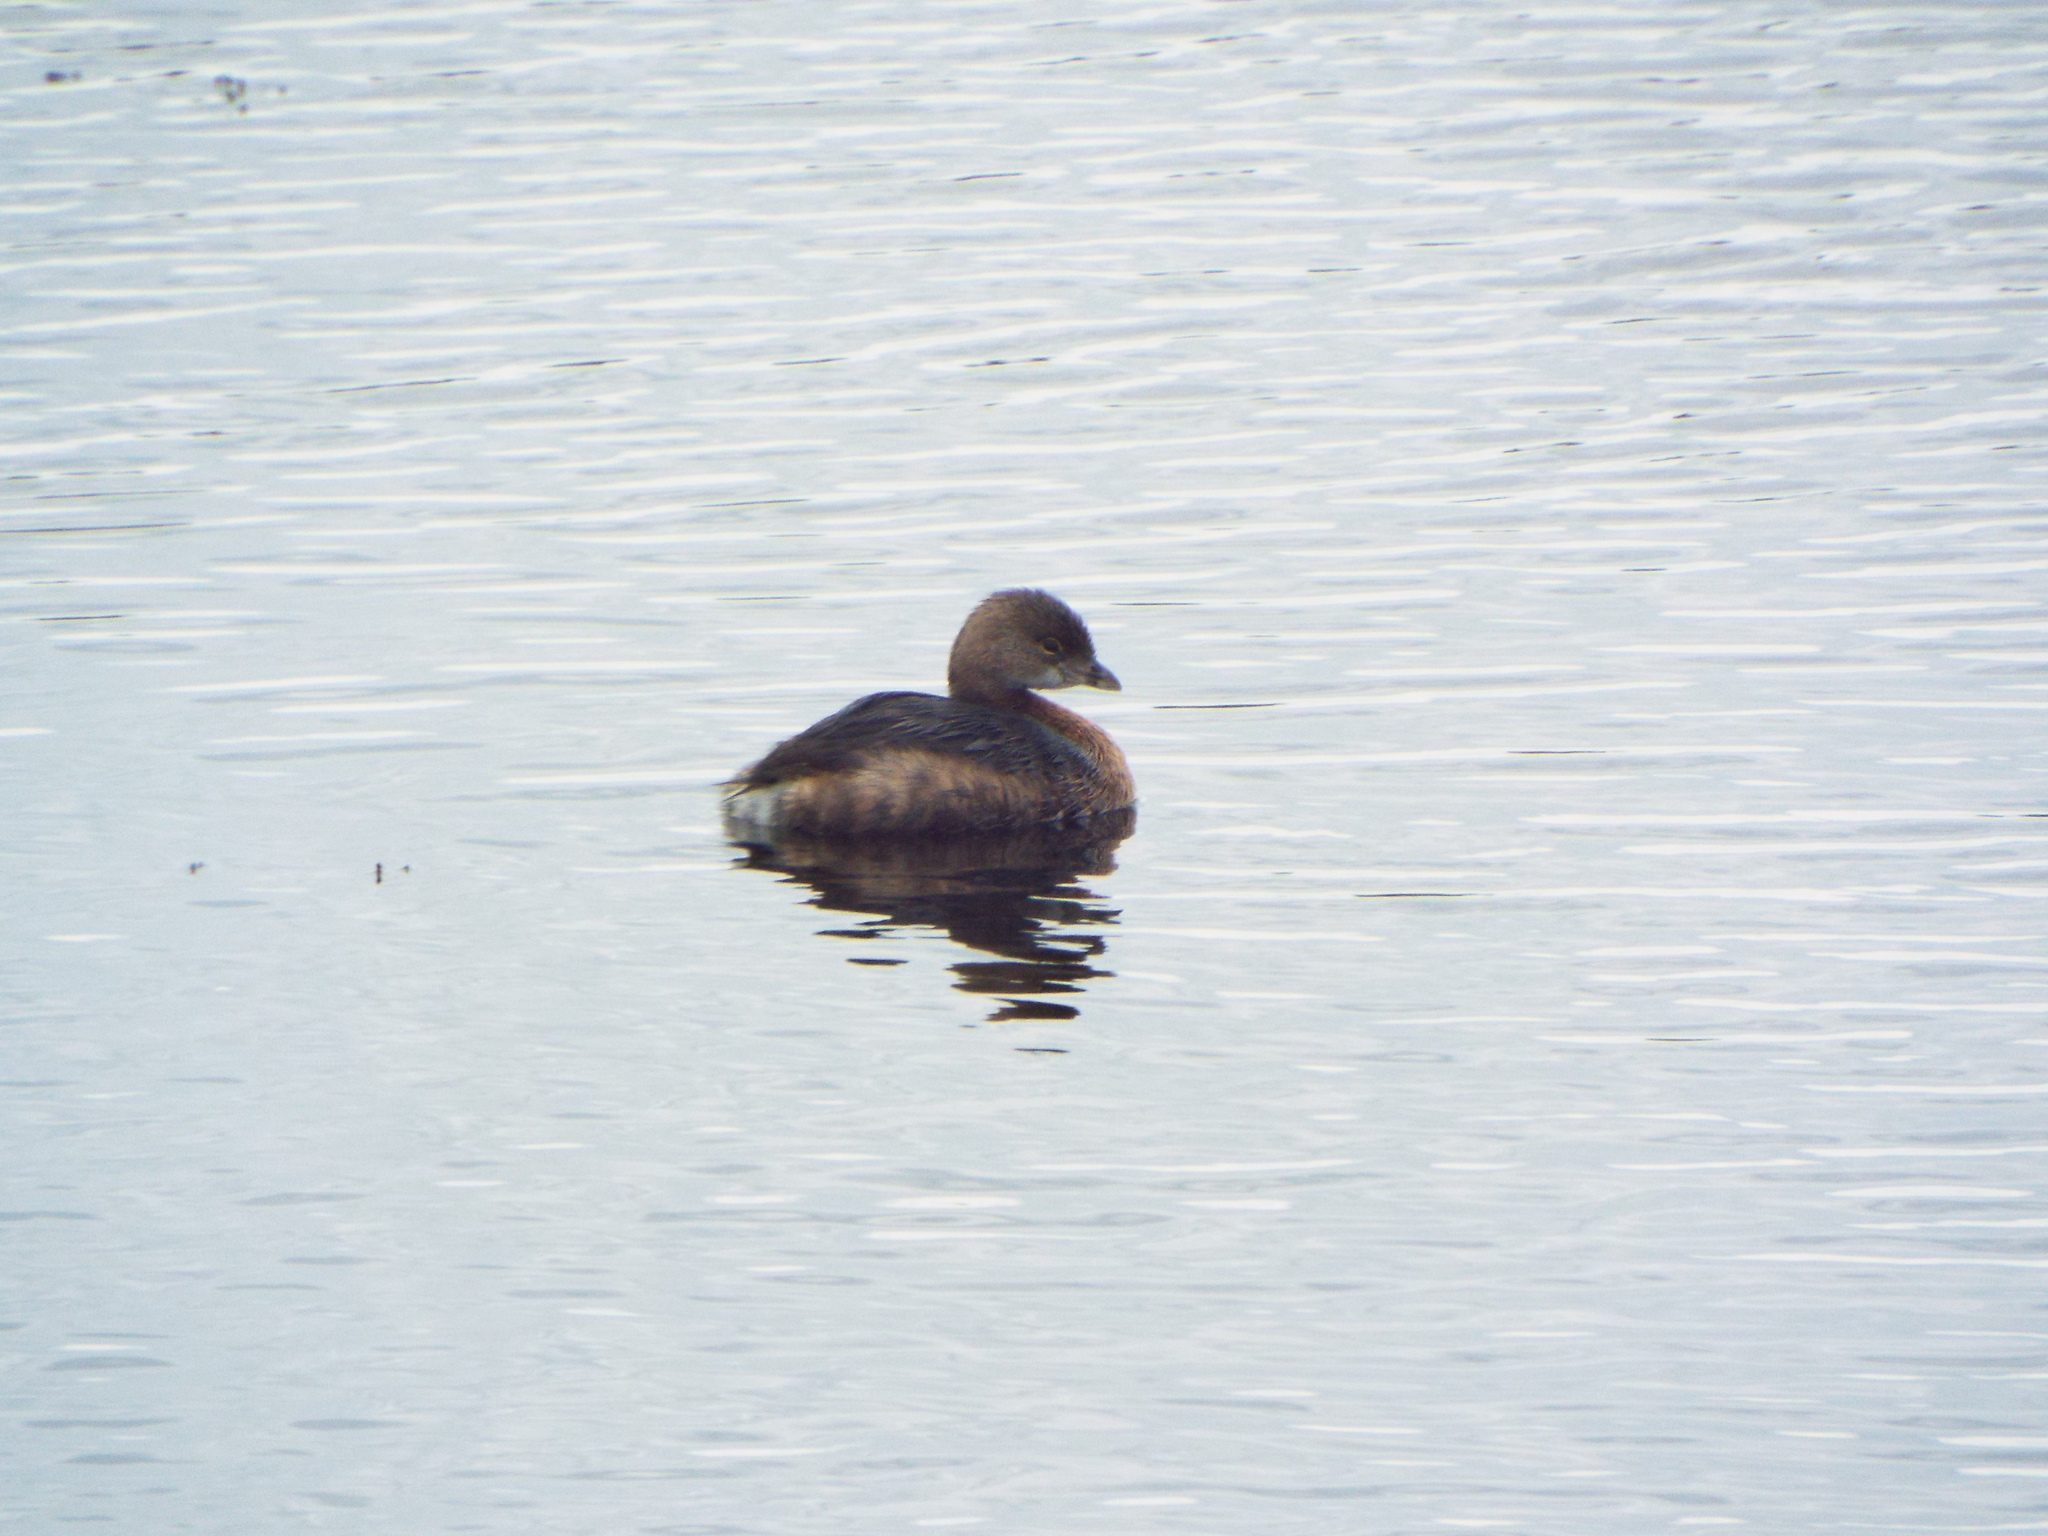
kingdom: Animalia
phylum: Chordata
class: Aves
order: Podicipediformes
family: Podicipedidae
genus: Podilymbus
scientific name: Podilymbus podiceps
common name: Pied-billed grebe
